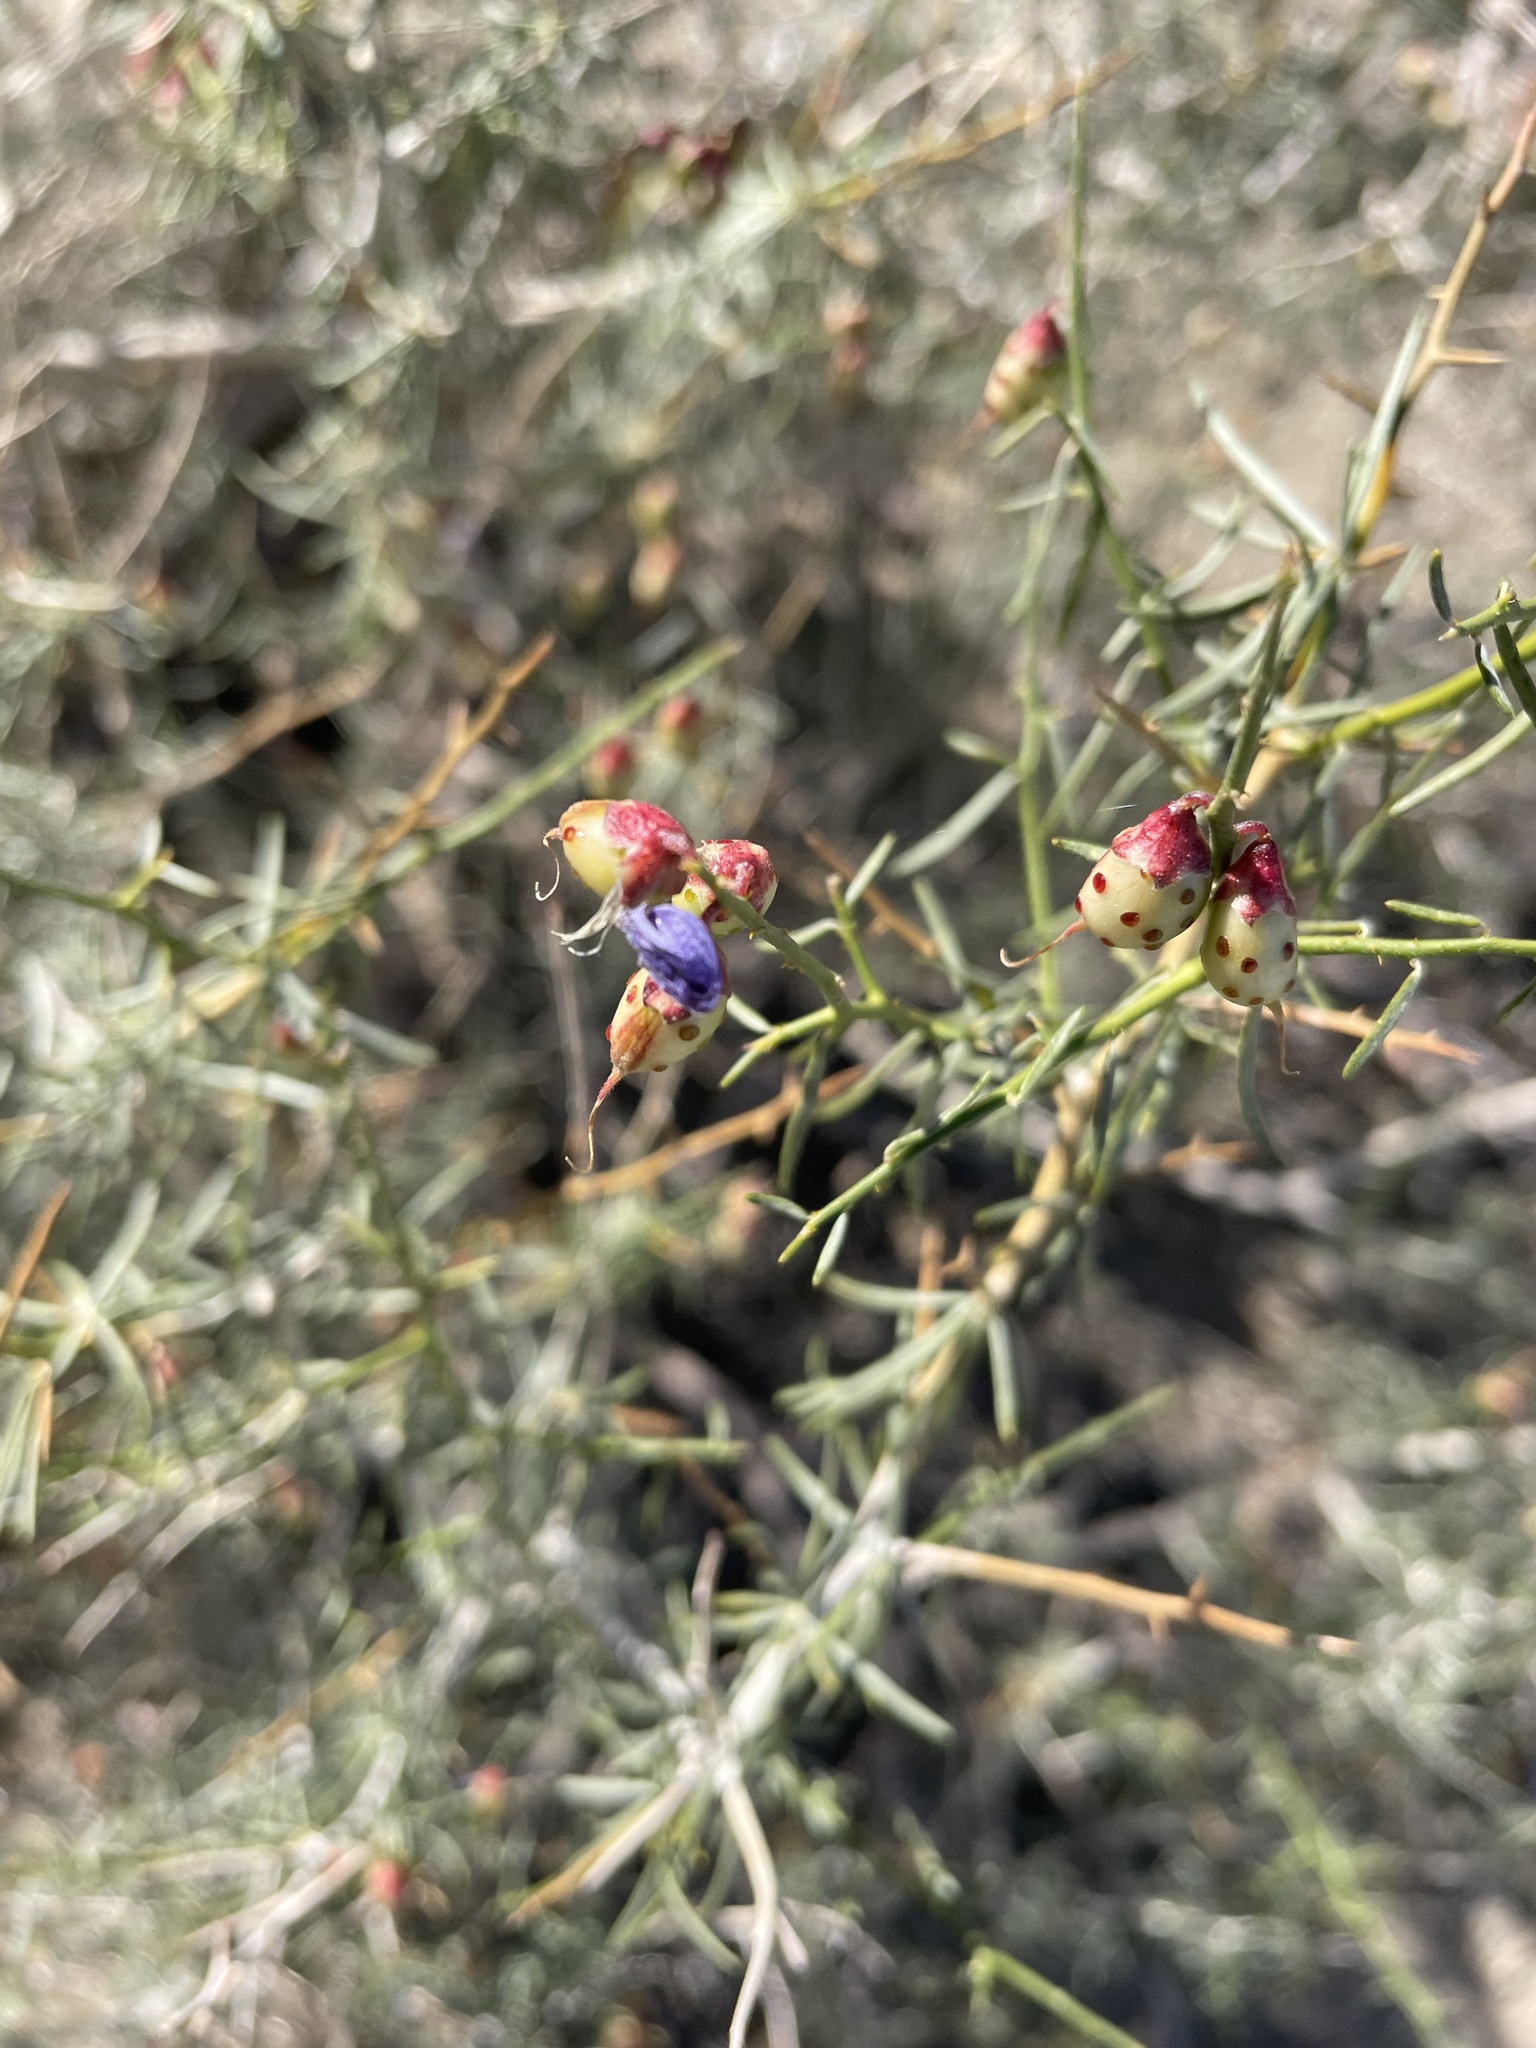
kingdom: Plantae
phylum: Tracheophyta
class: Magnoliopsida
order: Fabales
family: Fabaceae
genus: Psorothamnus
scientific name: Psorothamnus schottii
